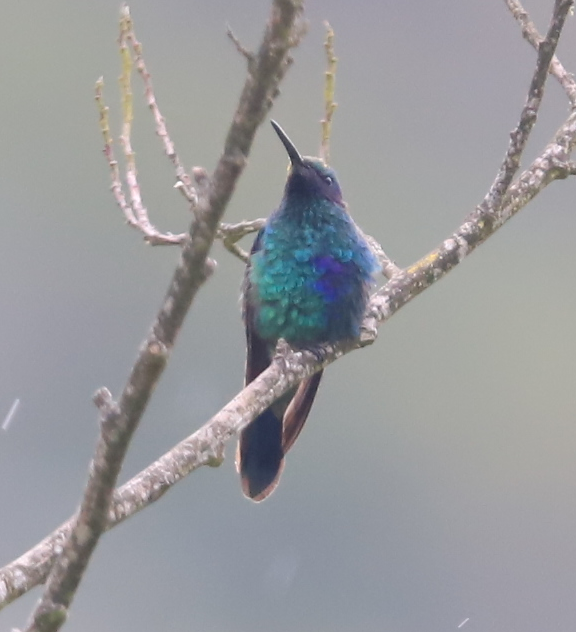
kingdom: Animalia
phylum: Chordata
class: Aves
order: Apodiformes
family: Trochilidae
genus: Colibri
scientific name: Colibri coruscans
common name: Sparkling violetear
